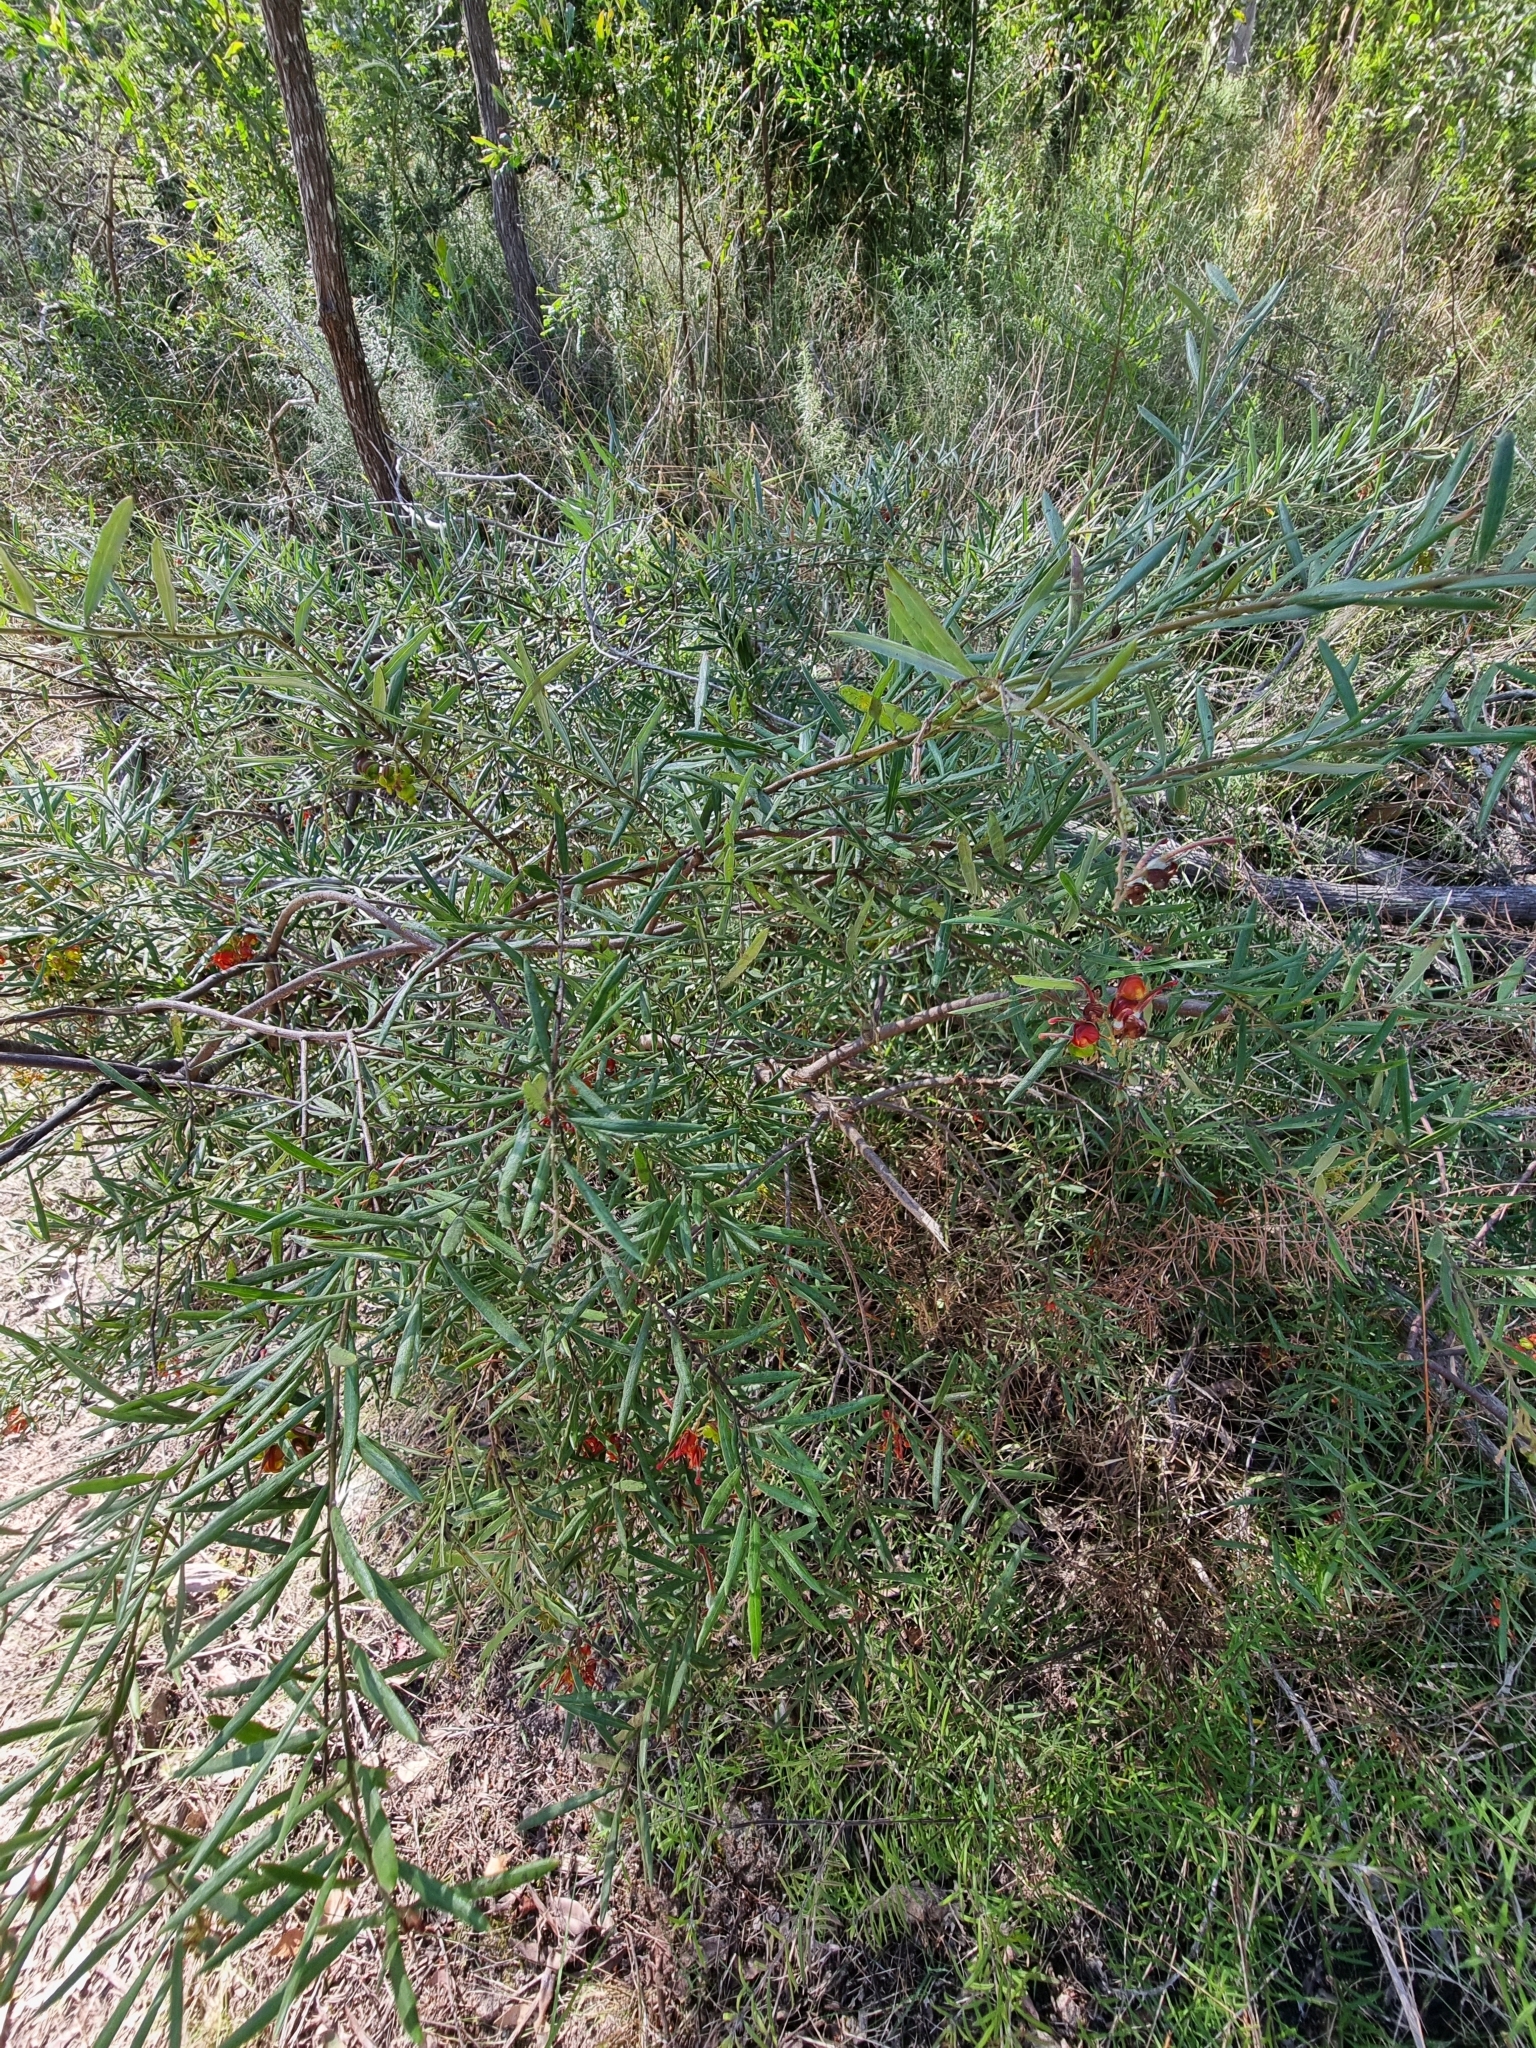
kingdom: Plantae
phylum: Tracheophyta
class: Magnoliopsida
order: Proteales
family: Proteaceae
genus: Grevillea
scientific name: Grevillea floribunda
